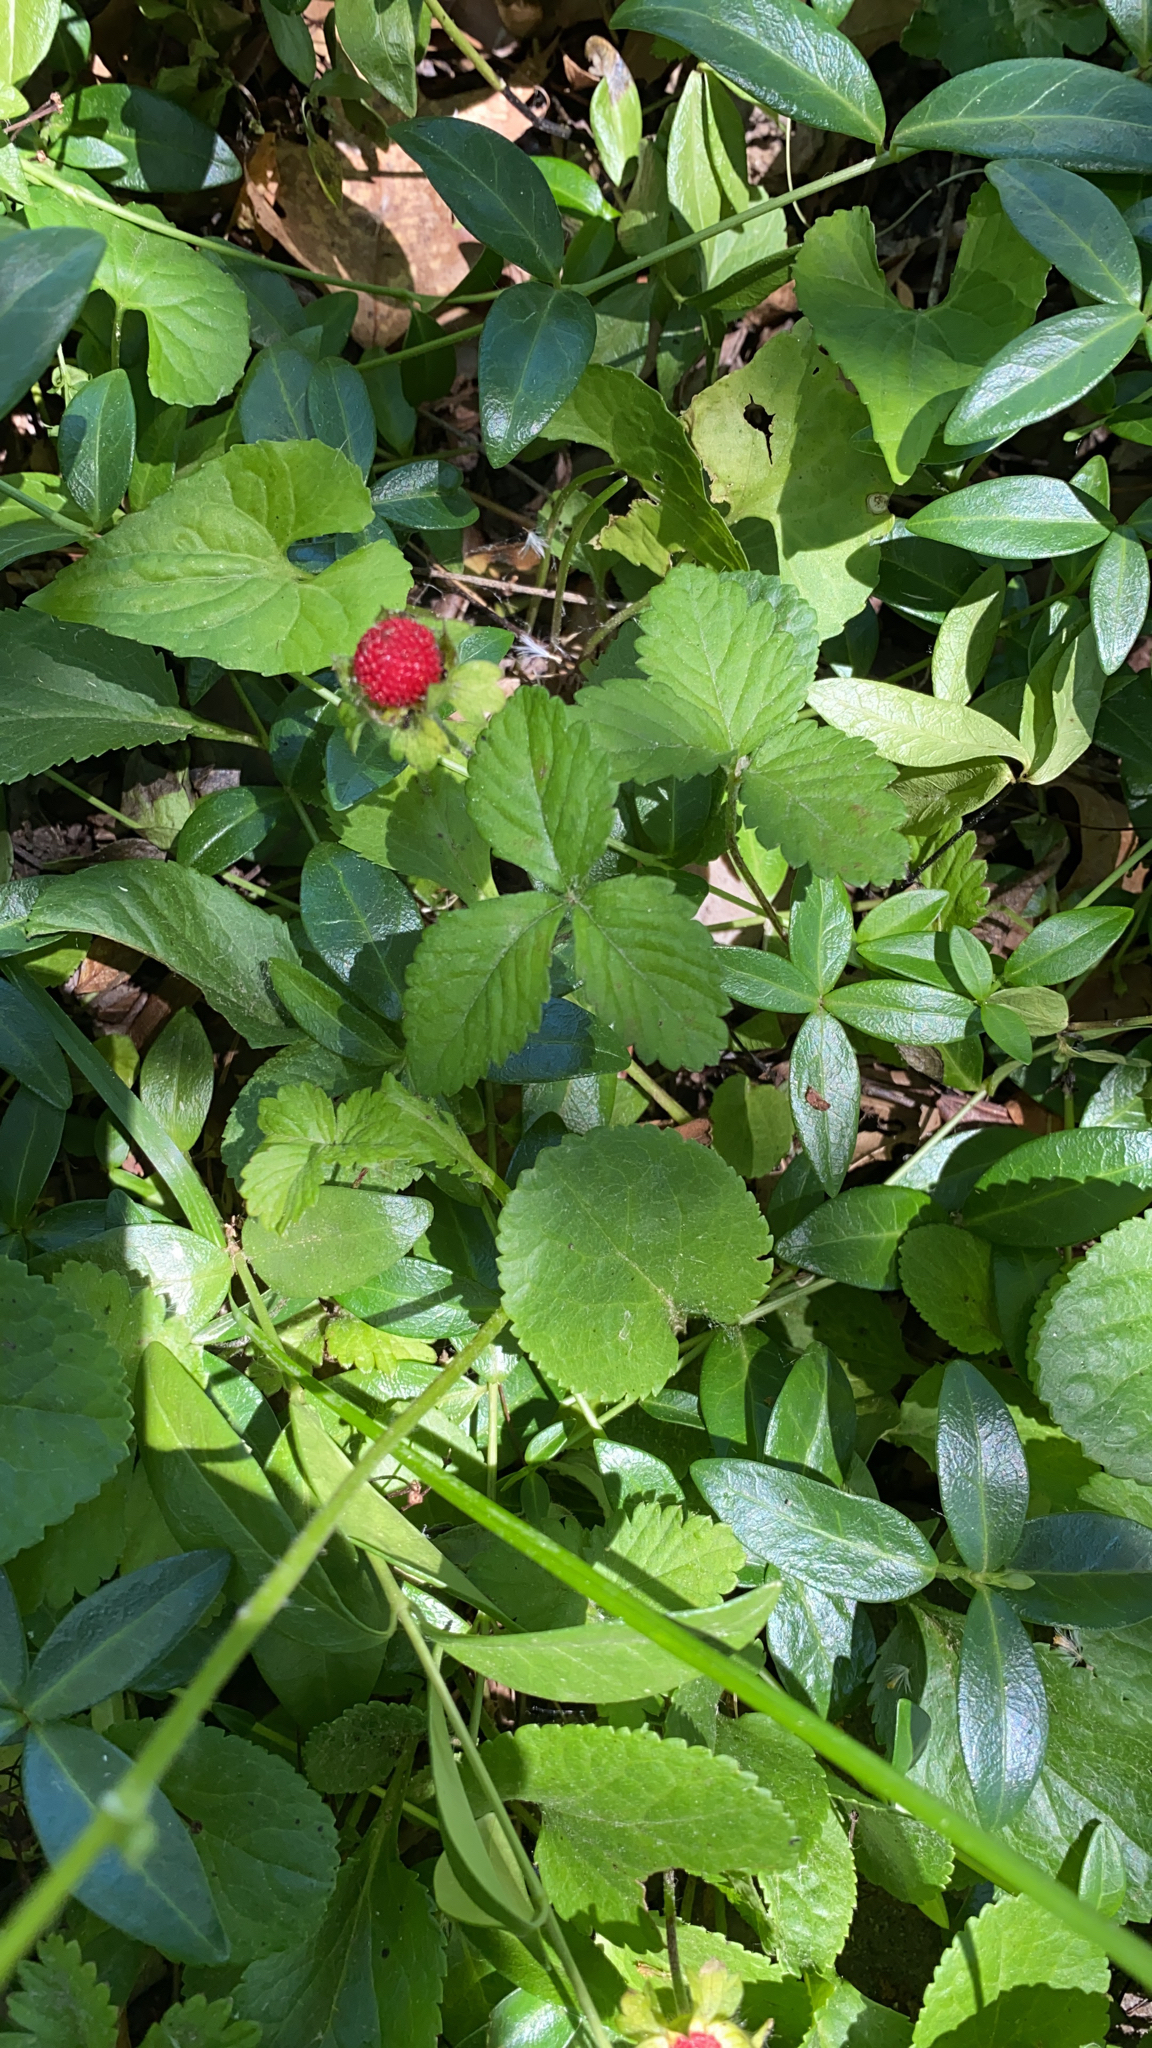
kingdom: Plantae
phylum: Tracheophyta
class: Magnoliopsida
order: Rosales
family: Rosaceae
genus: Potentilla
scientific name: Potentilla indica
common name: Yellow-flowered strawberry
